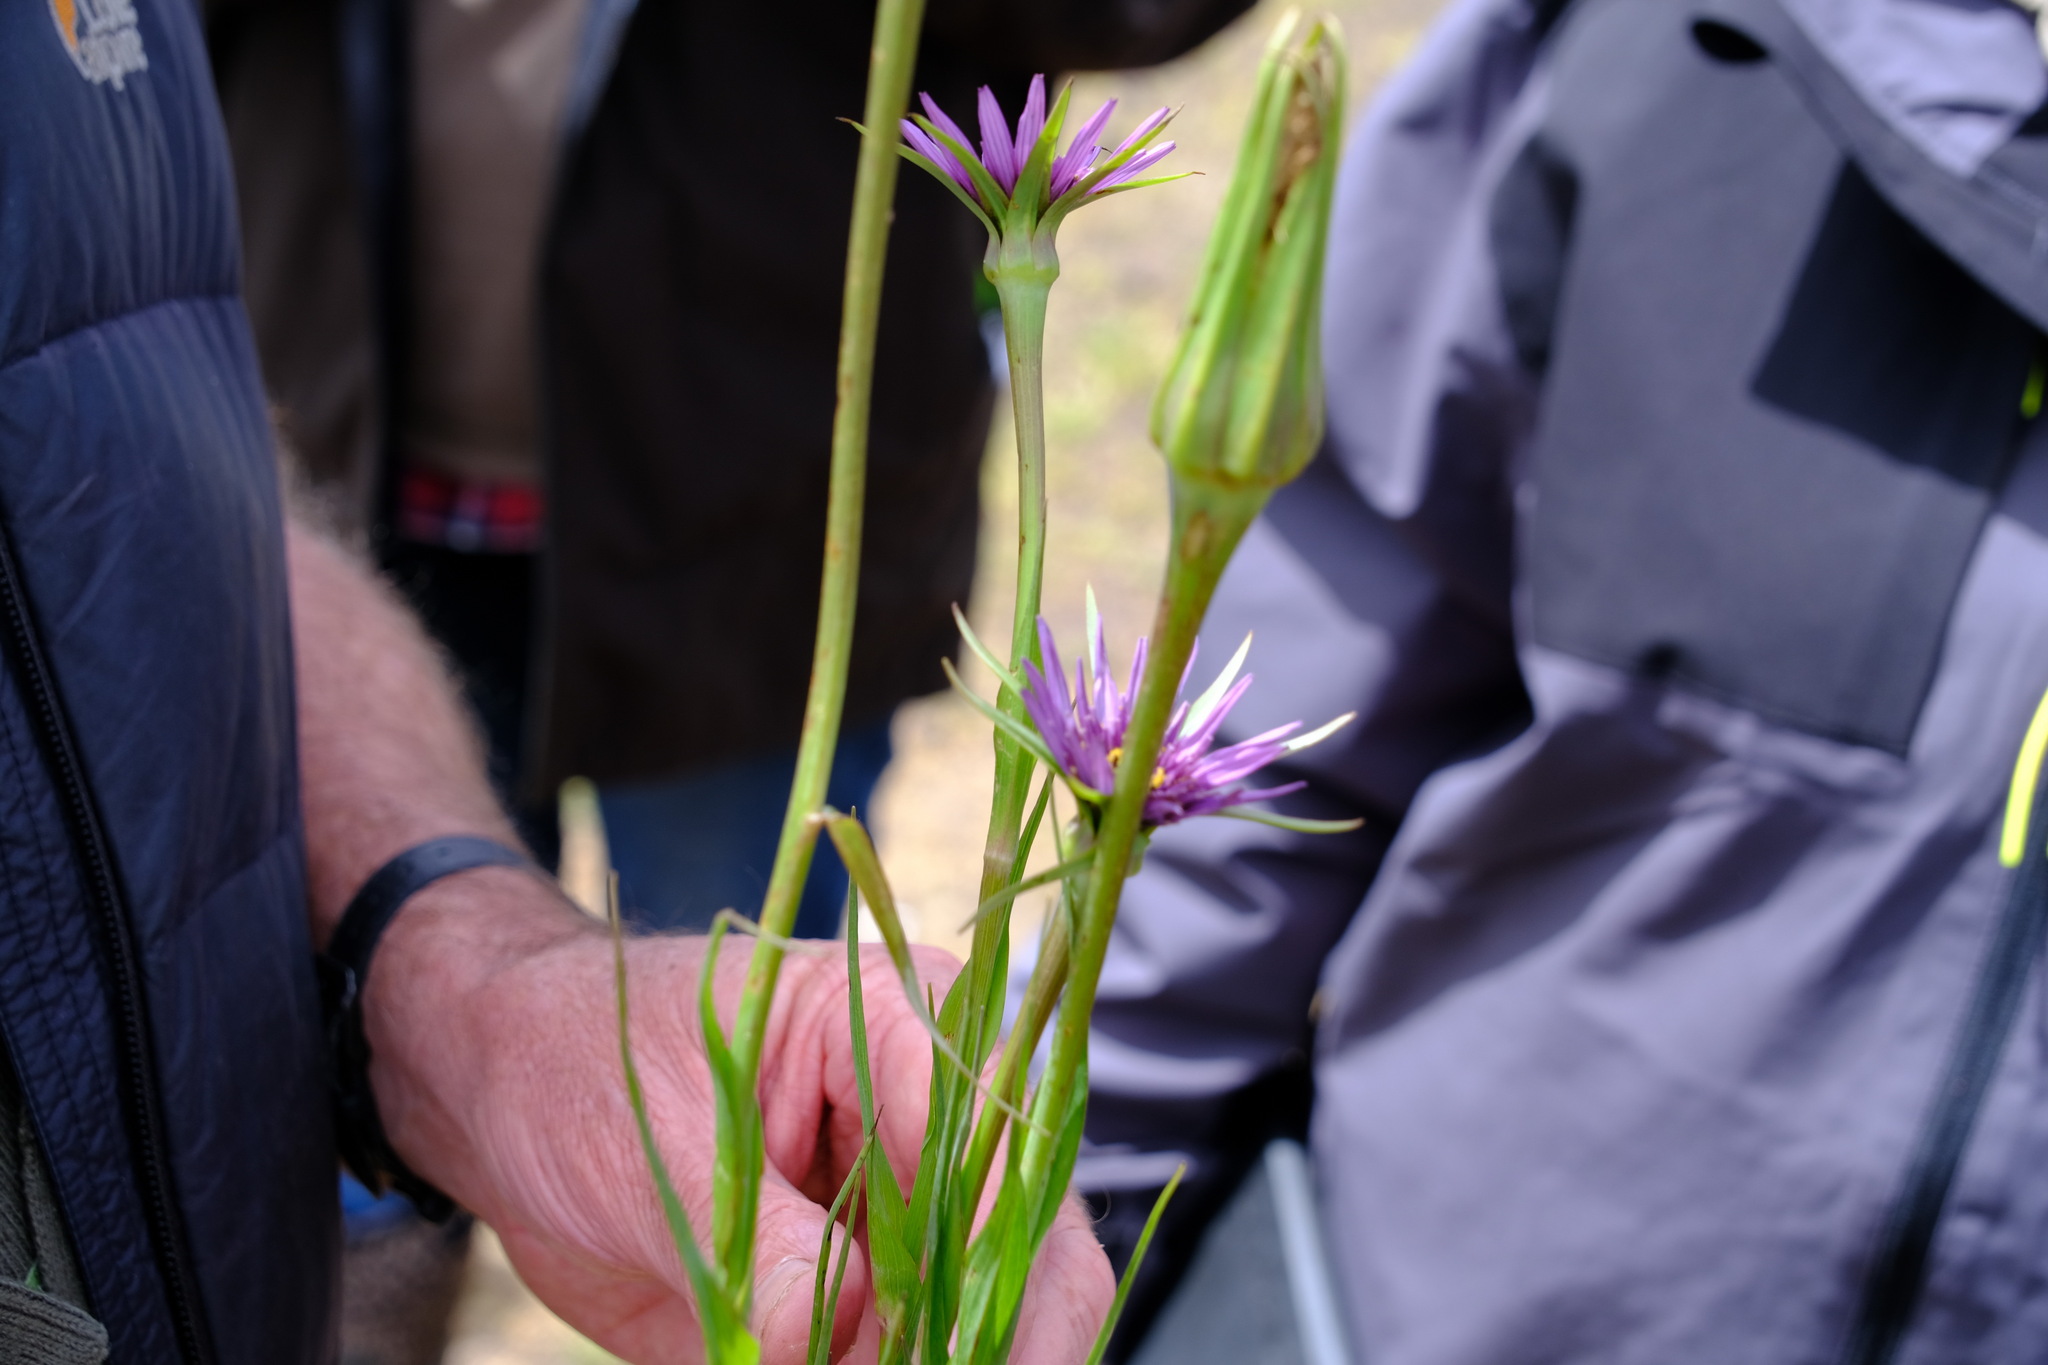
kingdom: Plantae
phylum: Tracheophyta
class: Magnoliopsida
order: Asterales
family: Asteraceae
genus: Tragopogon
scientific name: Tragopogon porrifolius
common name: Salsify
